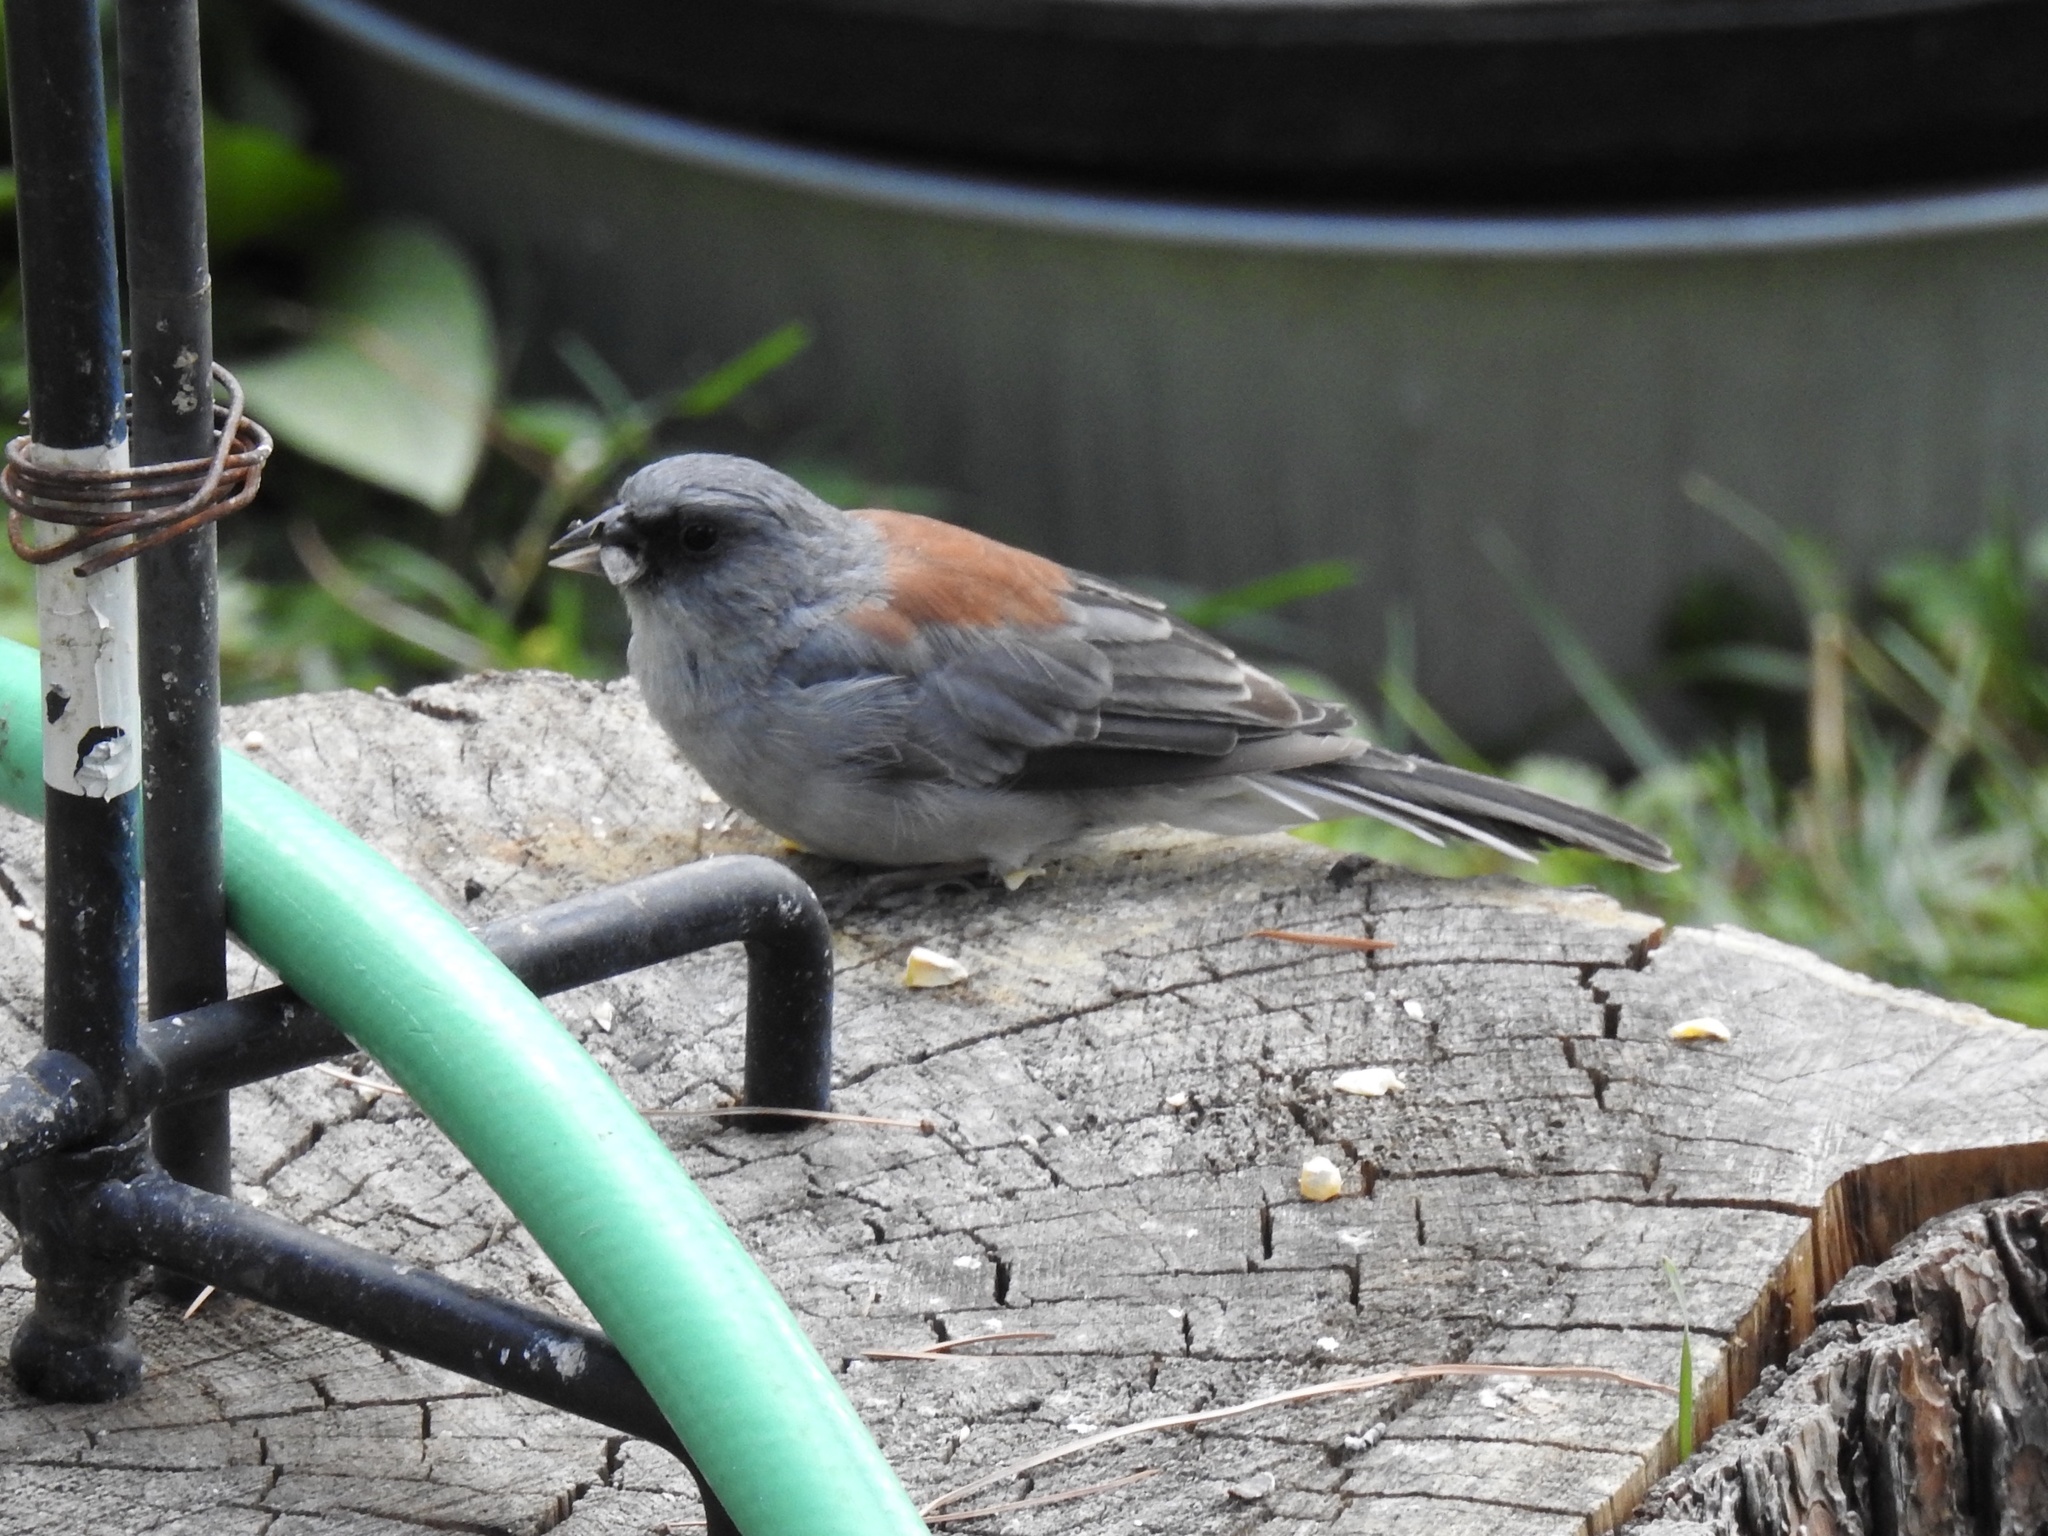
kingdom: Animalia
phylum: Chordata
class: Aves
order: Passeriformes
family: Passerellidae
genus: Junco
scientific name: Junco hyemalis
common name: Dark-eyed junco
